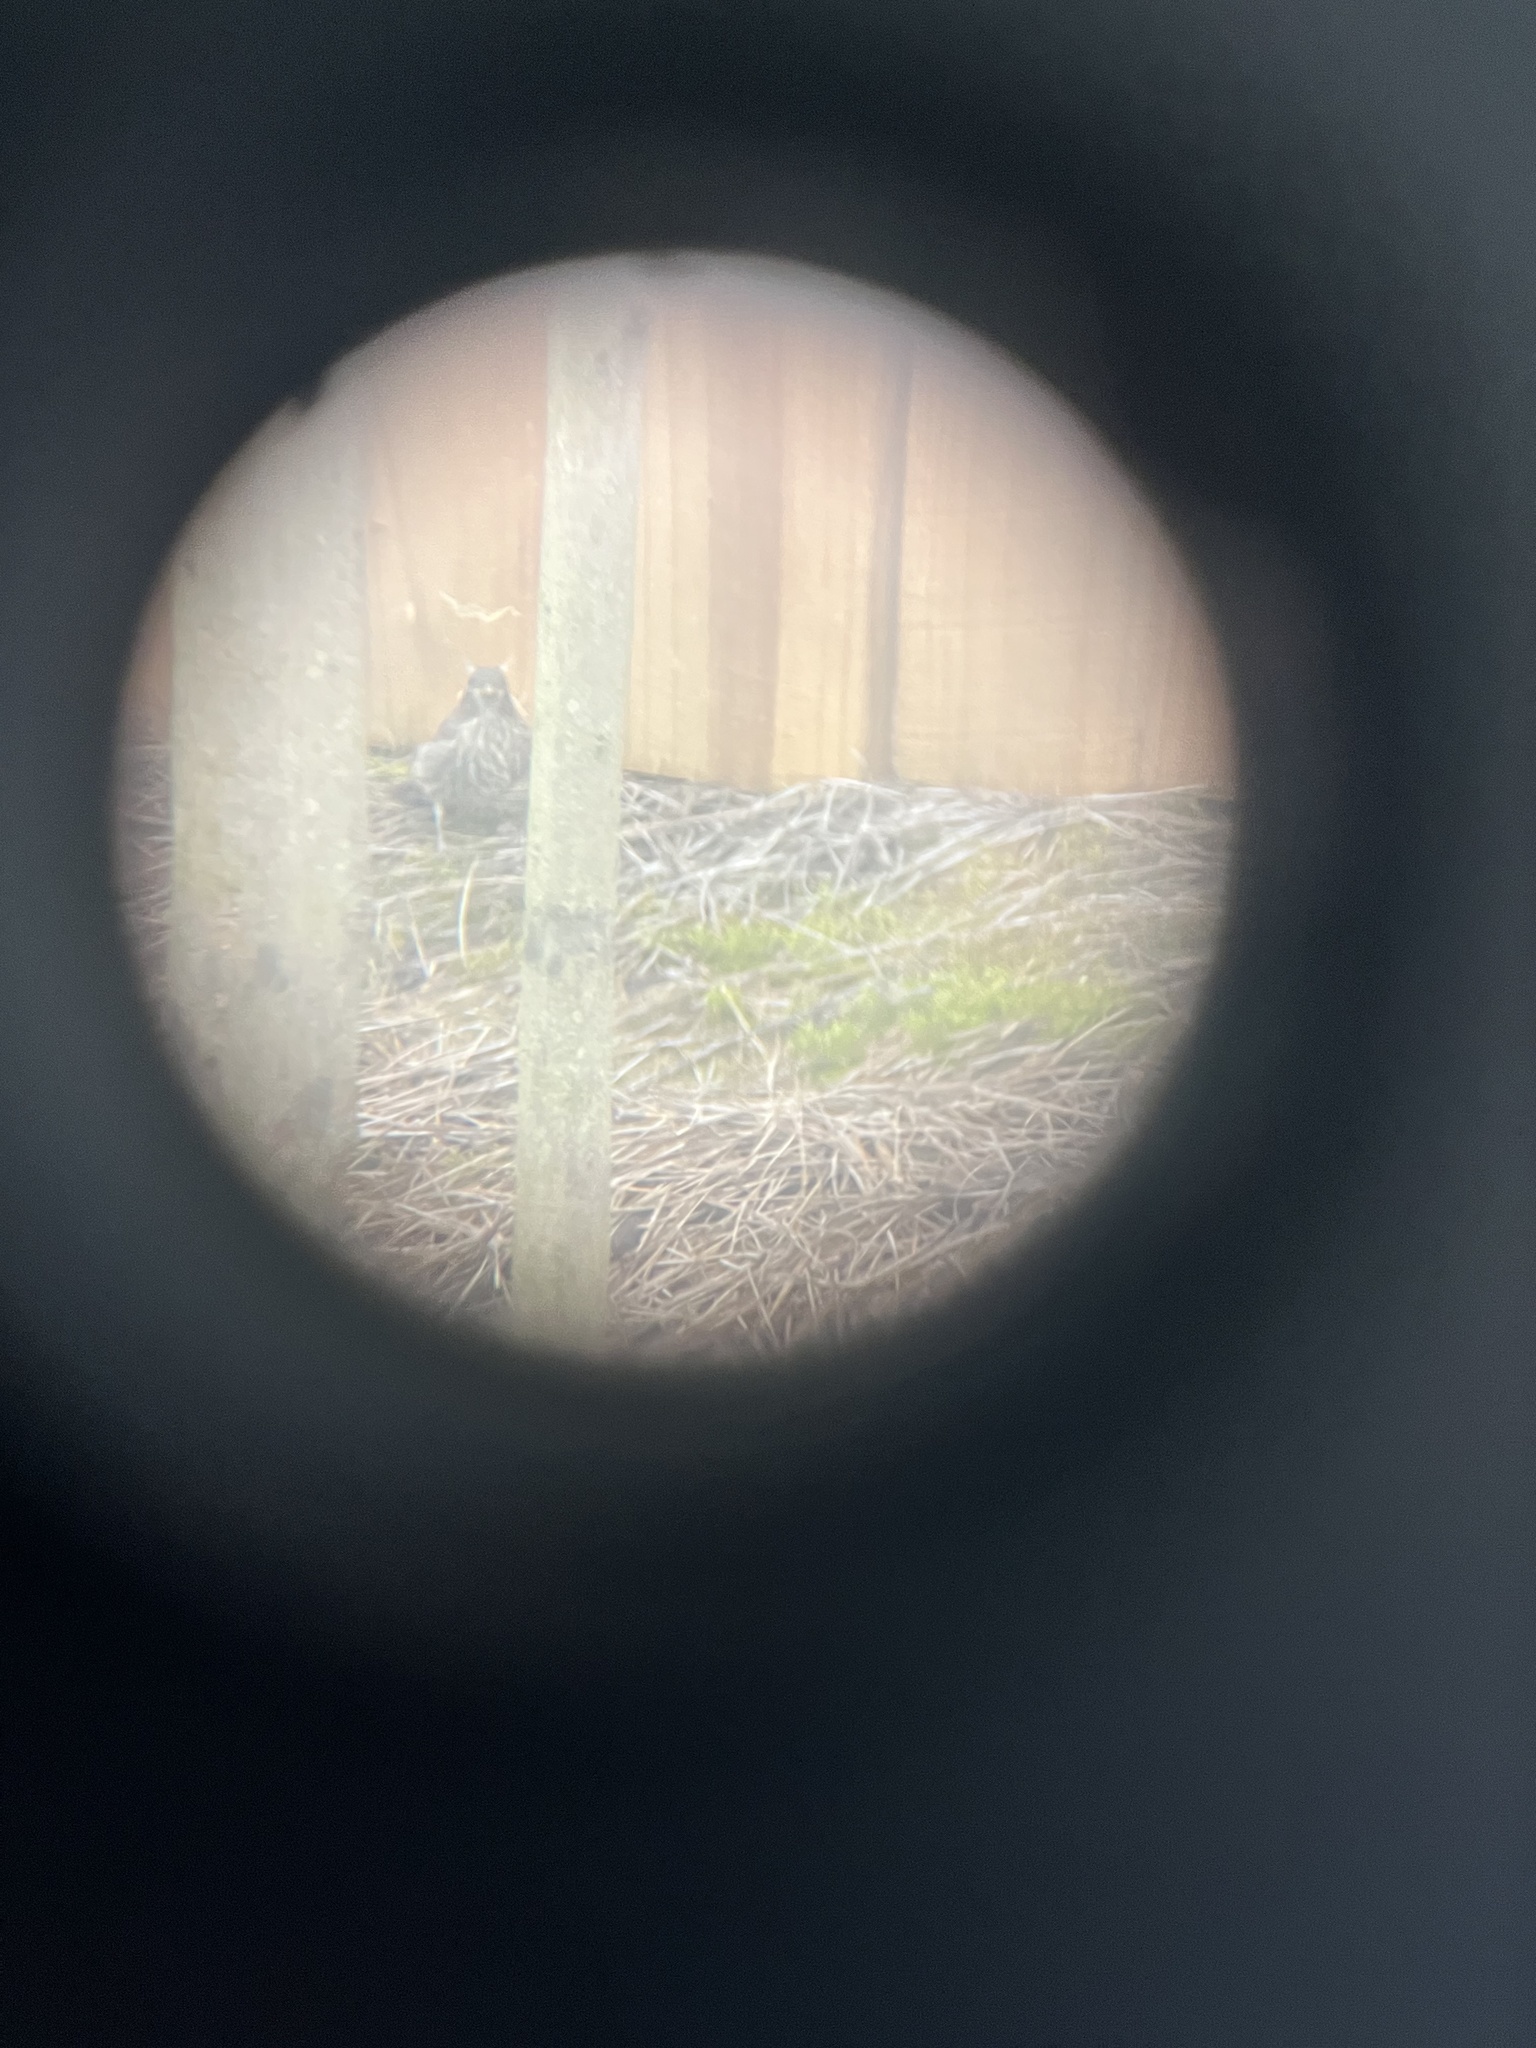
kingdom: Animalia
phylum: Chordata
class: Aves
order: Passeriformes
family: Fringillidae
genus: Haemorhous
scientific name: Haemorhous mexicanus
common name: House finch
